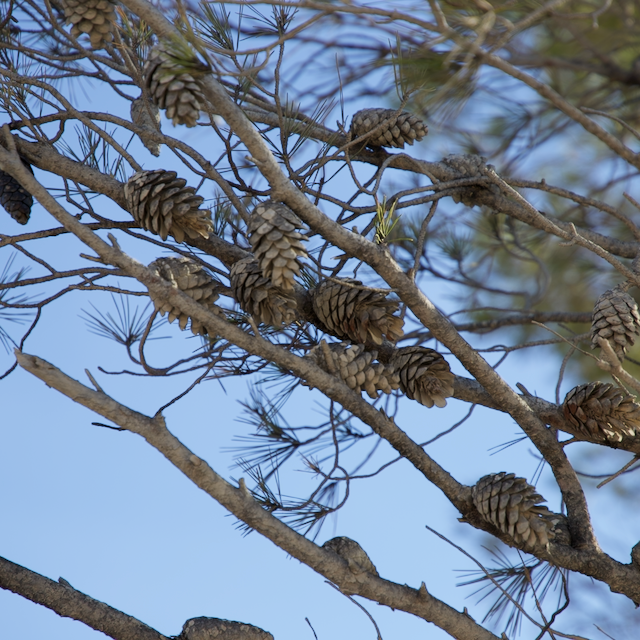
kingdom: Plantae
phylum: Tracheophyta
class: Pinopsida
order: Pinales
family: Pinaceae
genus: Pinus
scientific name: Pinus halepensis
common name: Aleppo pine
